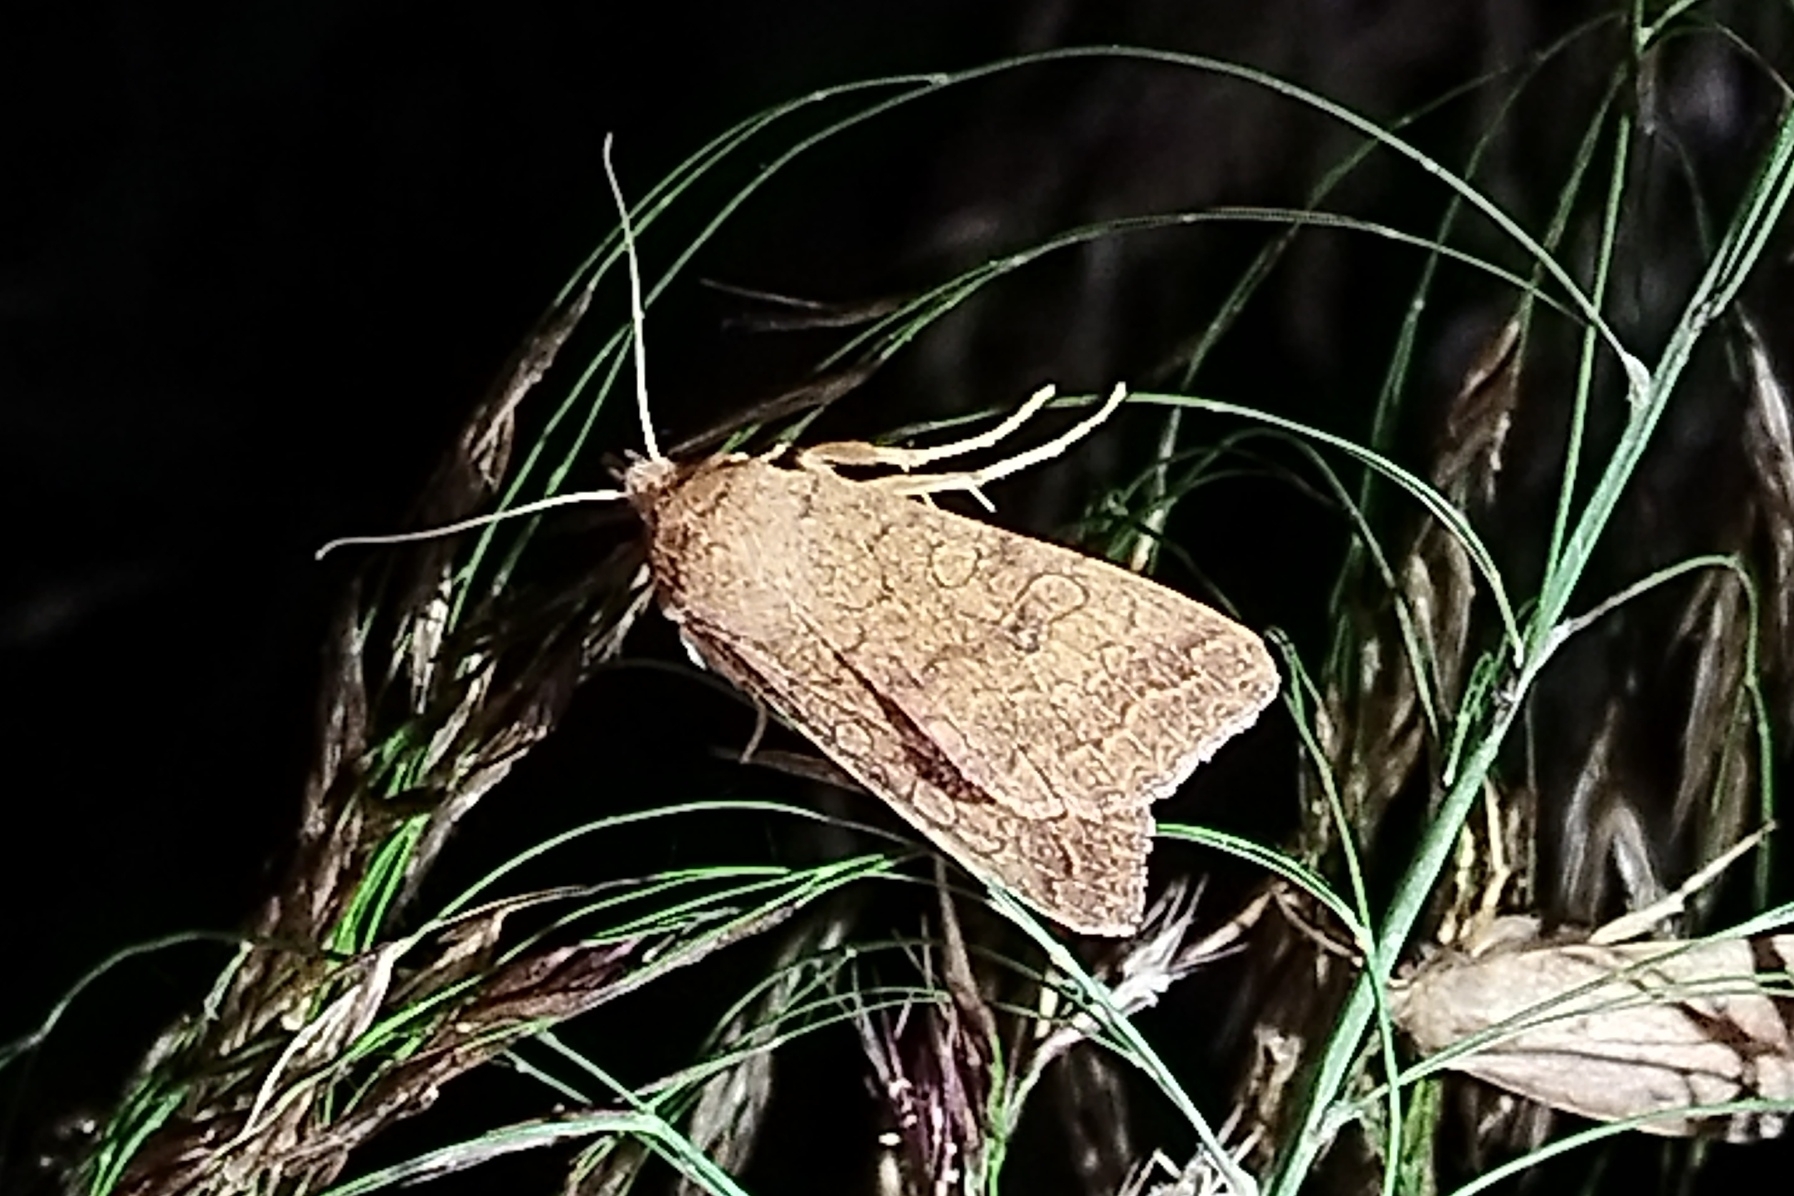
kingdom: Animalia
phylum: Arthropoda
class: Insecta
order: Lepidoptera
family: Noctuidae
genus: Sunira
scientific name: Sunira circellaris
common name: Brick
